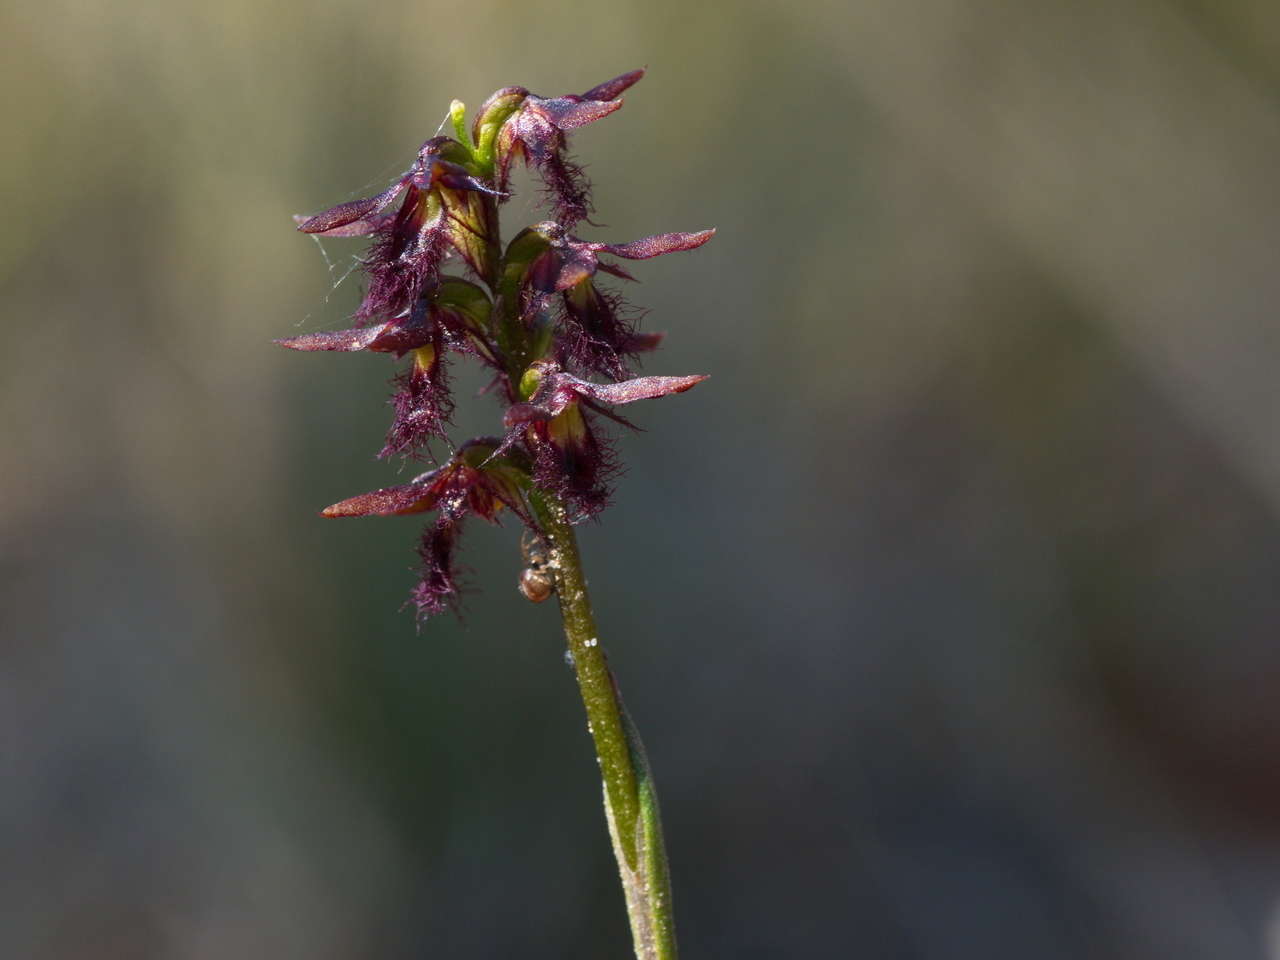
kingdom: Plantae
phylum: Tracheophyta
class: Liliopsida
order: Asparagales
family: Orchidaceae
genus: Genoplesium
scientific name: Genoplesium morrisii
